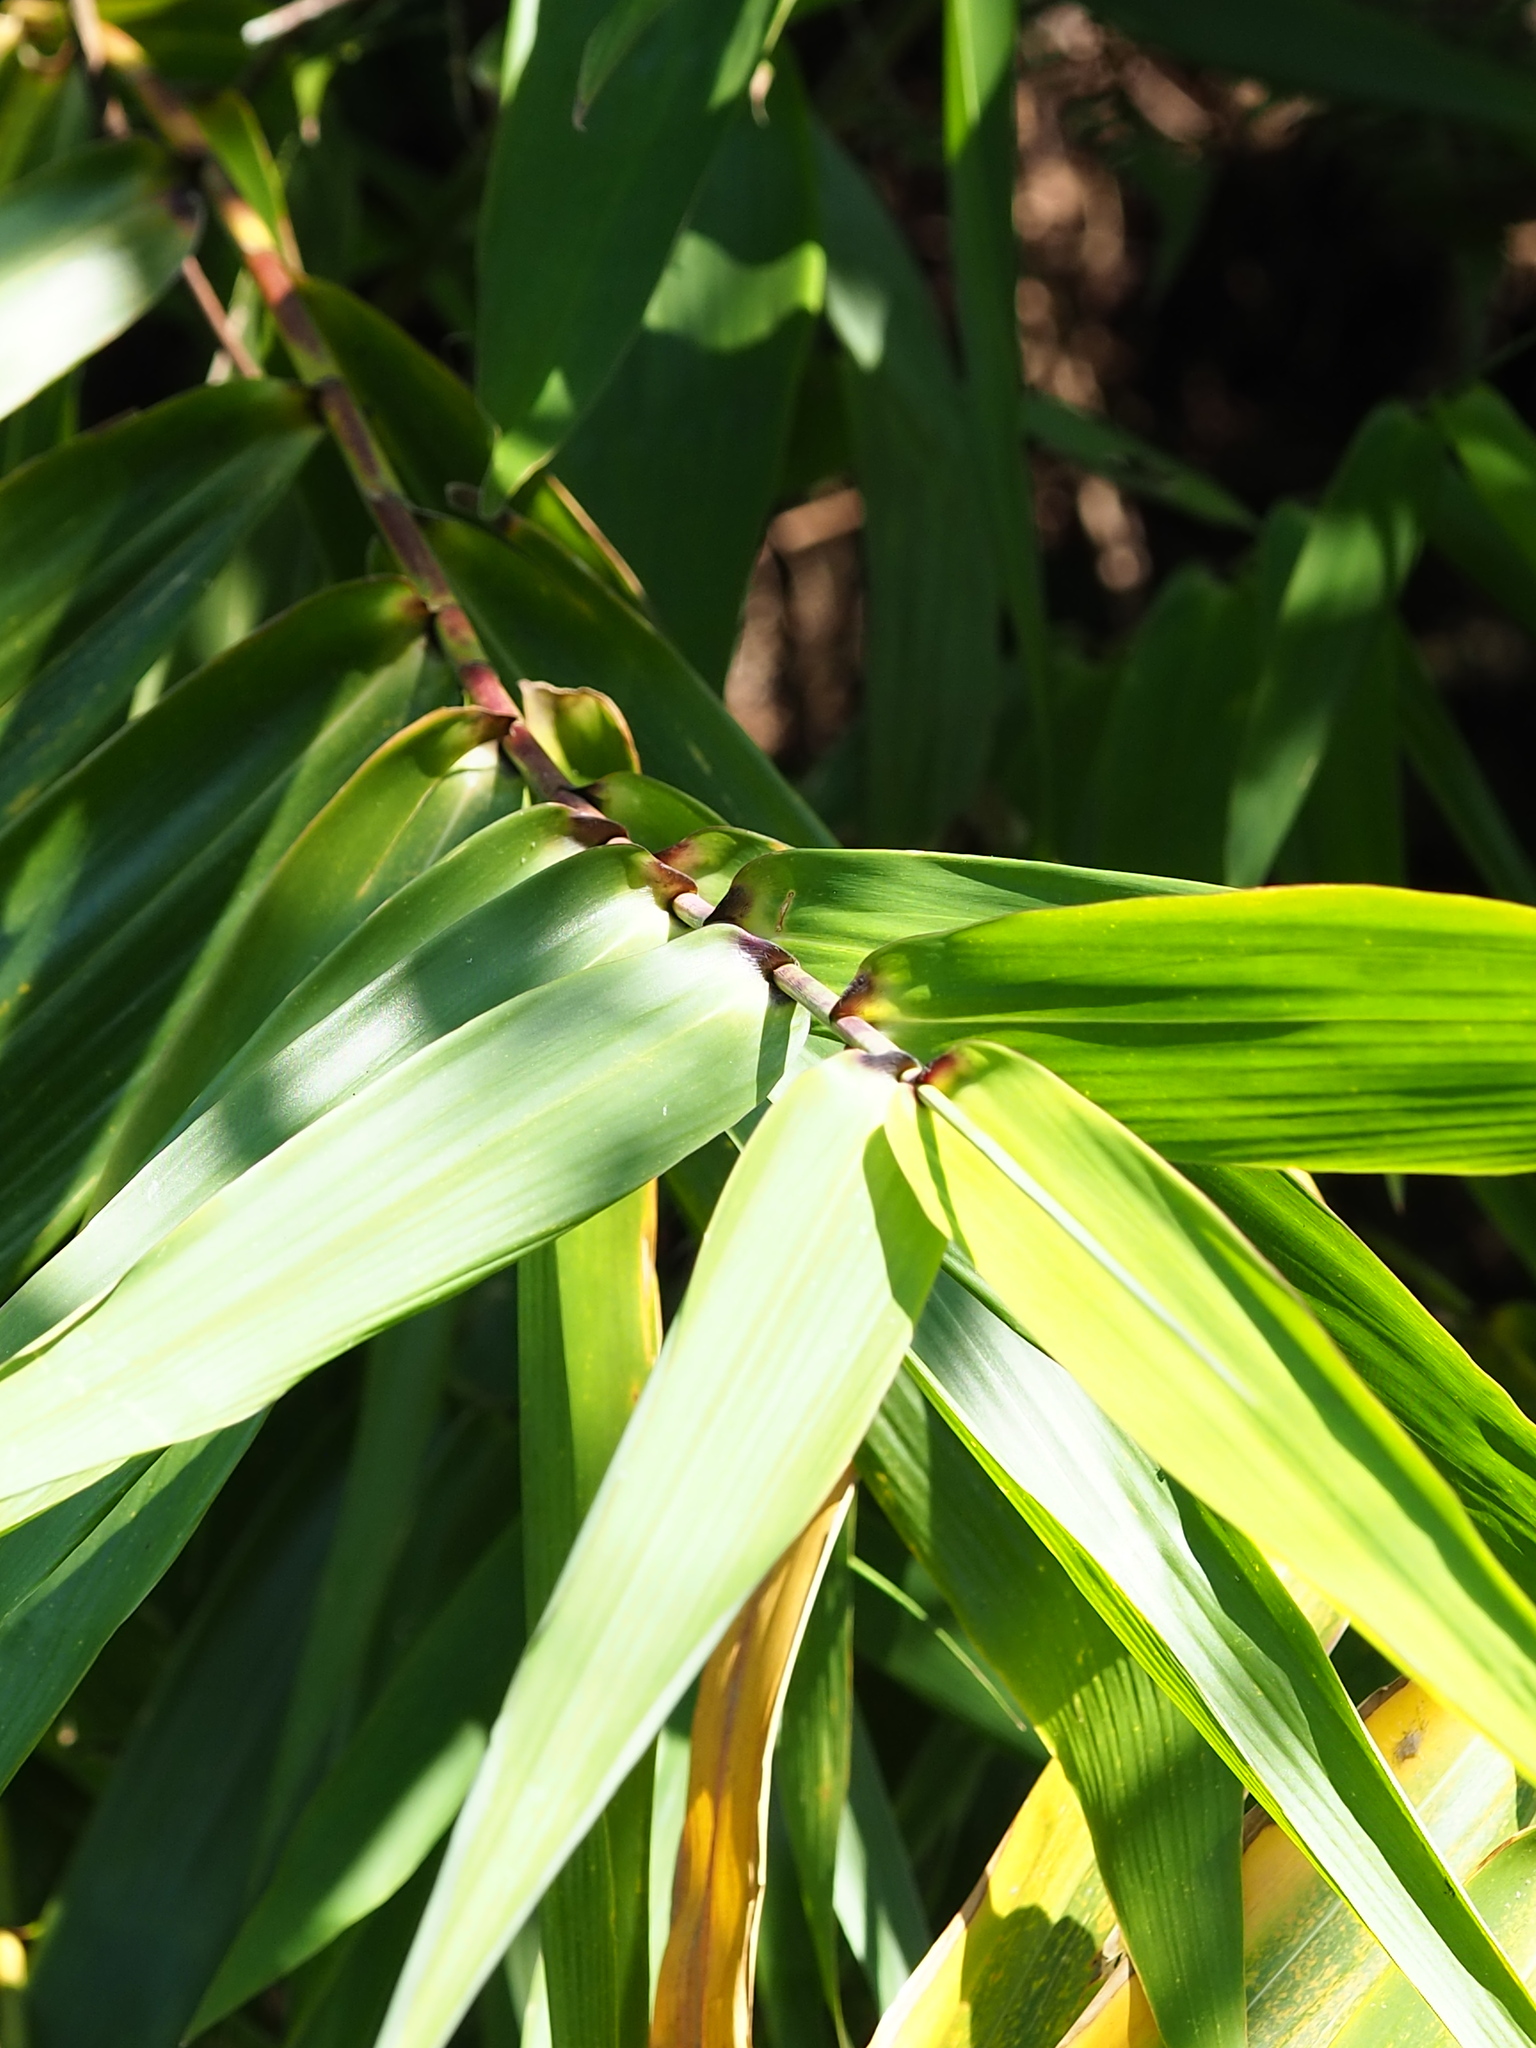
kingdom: Plantae
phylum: Tracheophyta
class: Liliopsida
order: Poales
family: Poaceae
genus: Thysanolaena
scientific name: Thysanolaena latifolia
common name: Tiger grass
